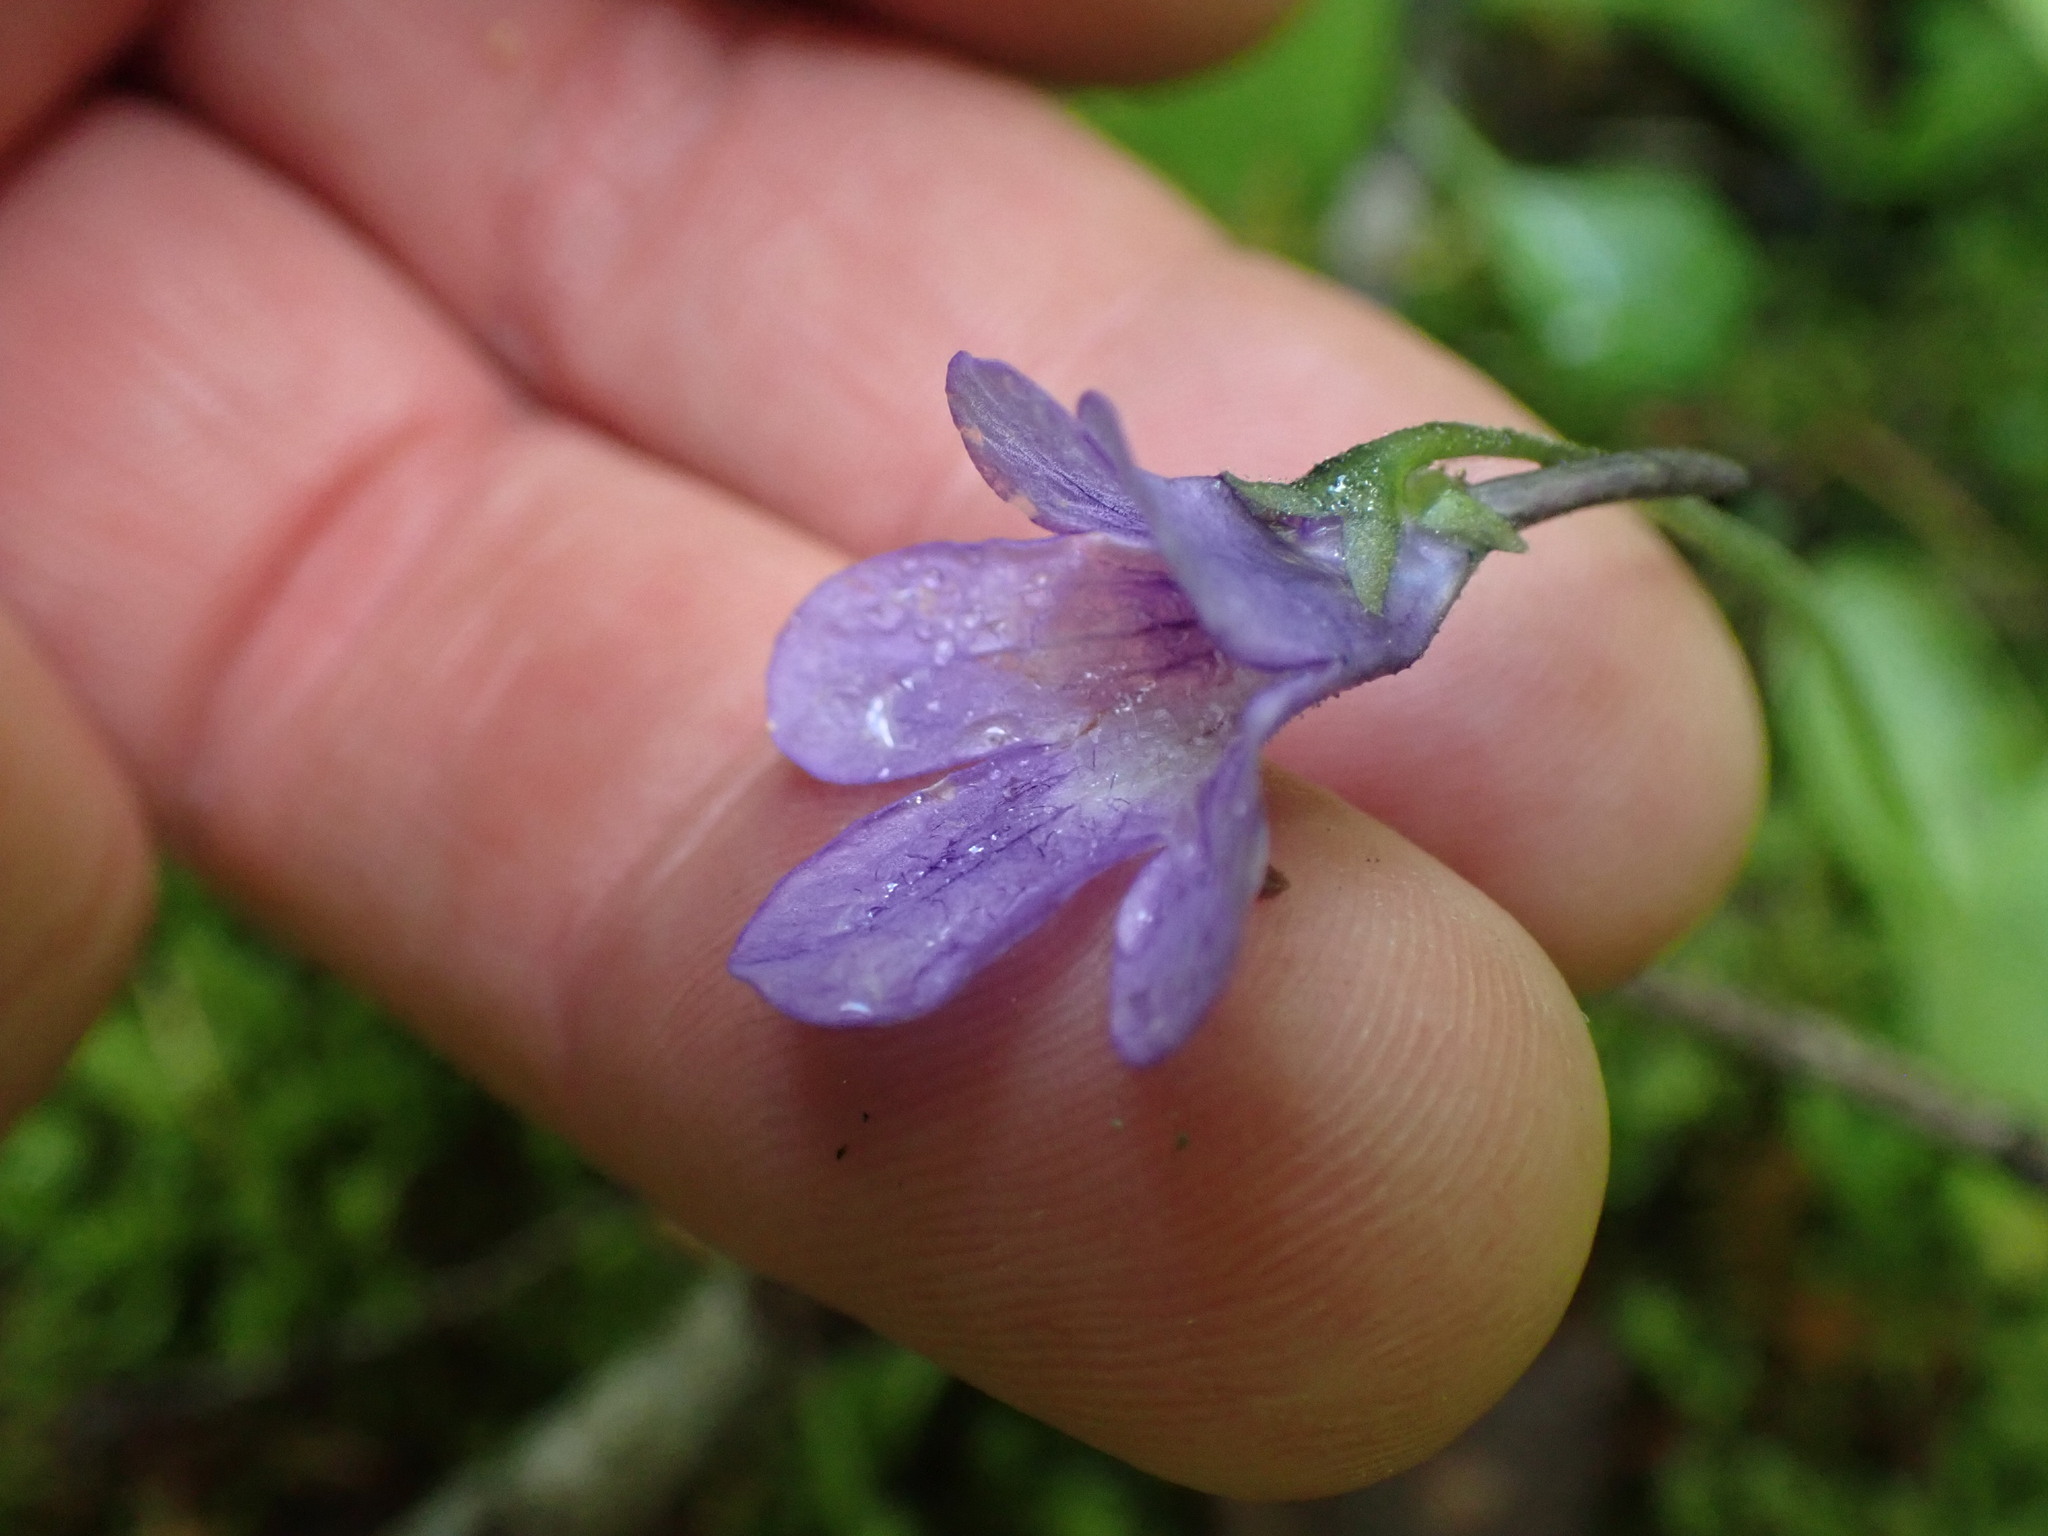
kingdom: Plantae
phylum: Tracheophyta
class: Magnoliopsida
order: Lamiales
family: Lentibulariaceae
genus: Pinguicula
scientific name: Pinguicula macroceras
